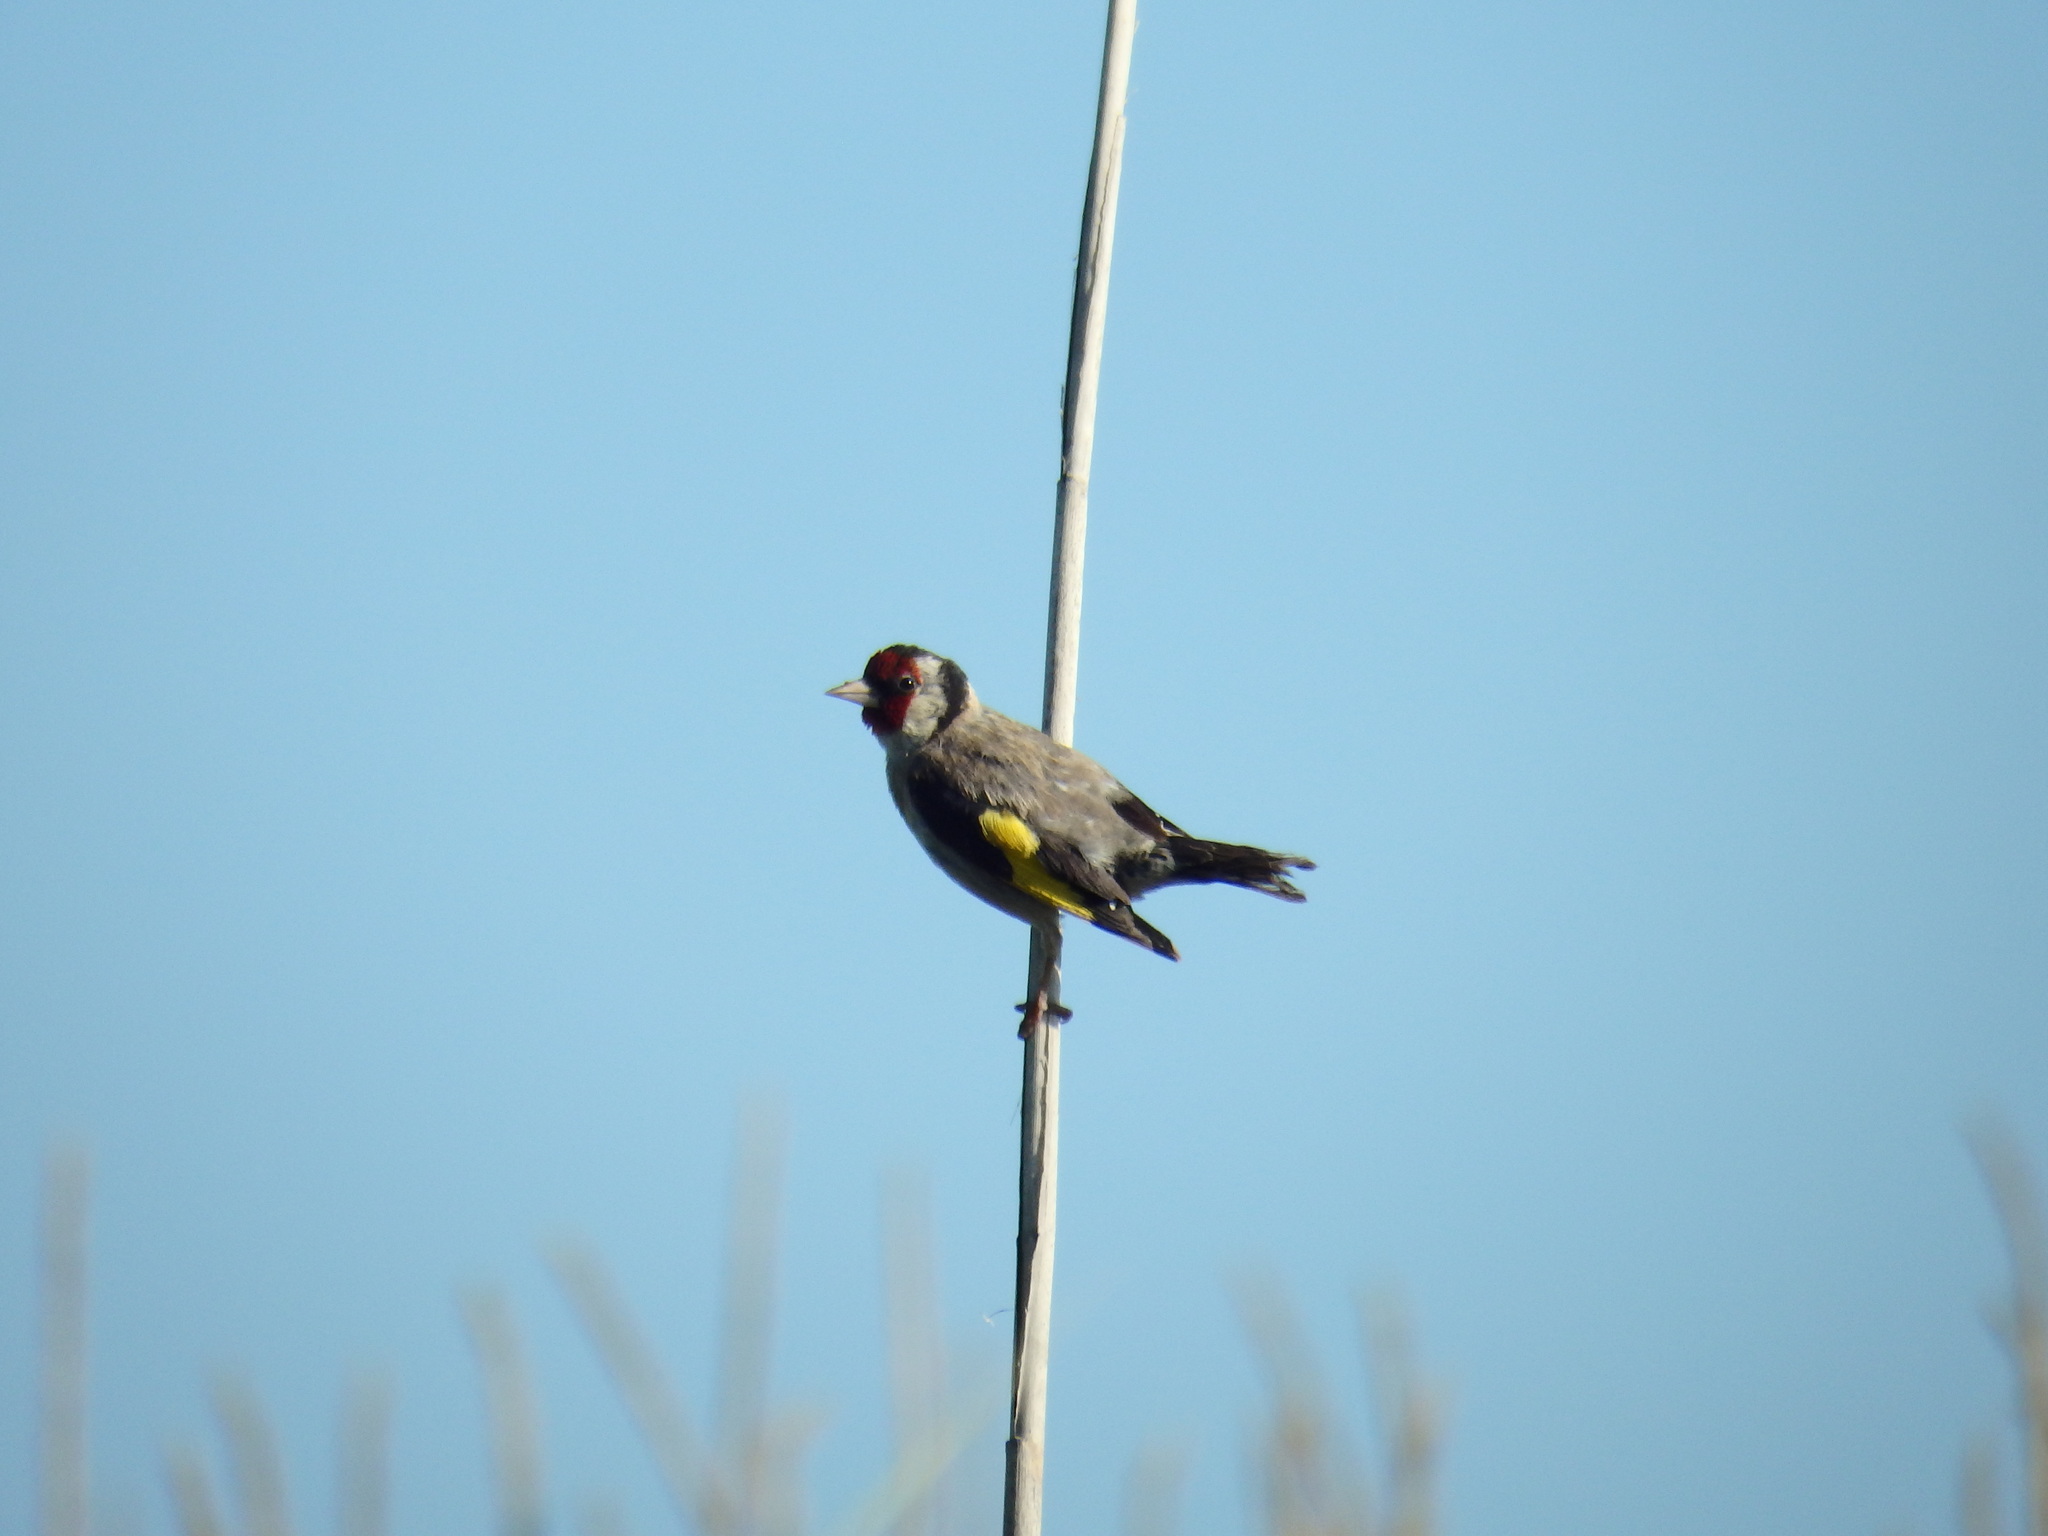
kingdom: Animalia
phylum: Chordata
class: Aves
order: Passeriformes
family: Fringillidae
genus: Carduelis
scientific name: Carduelis carduelis
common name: European goldfinch
